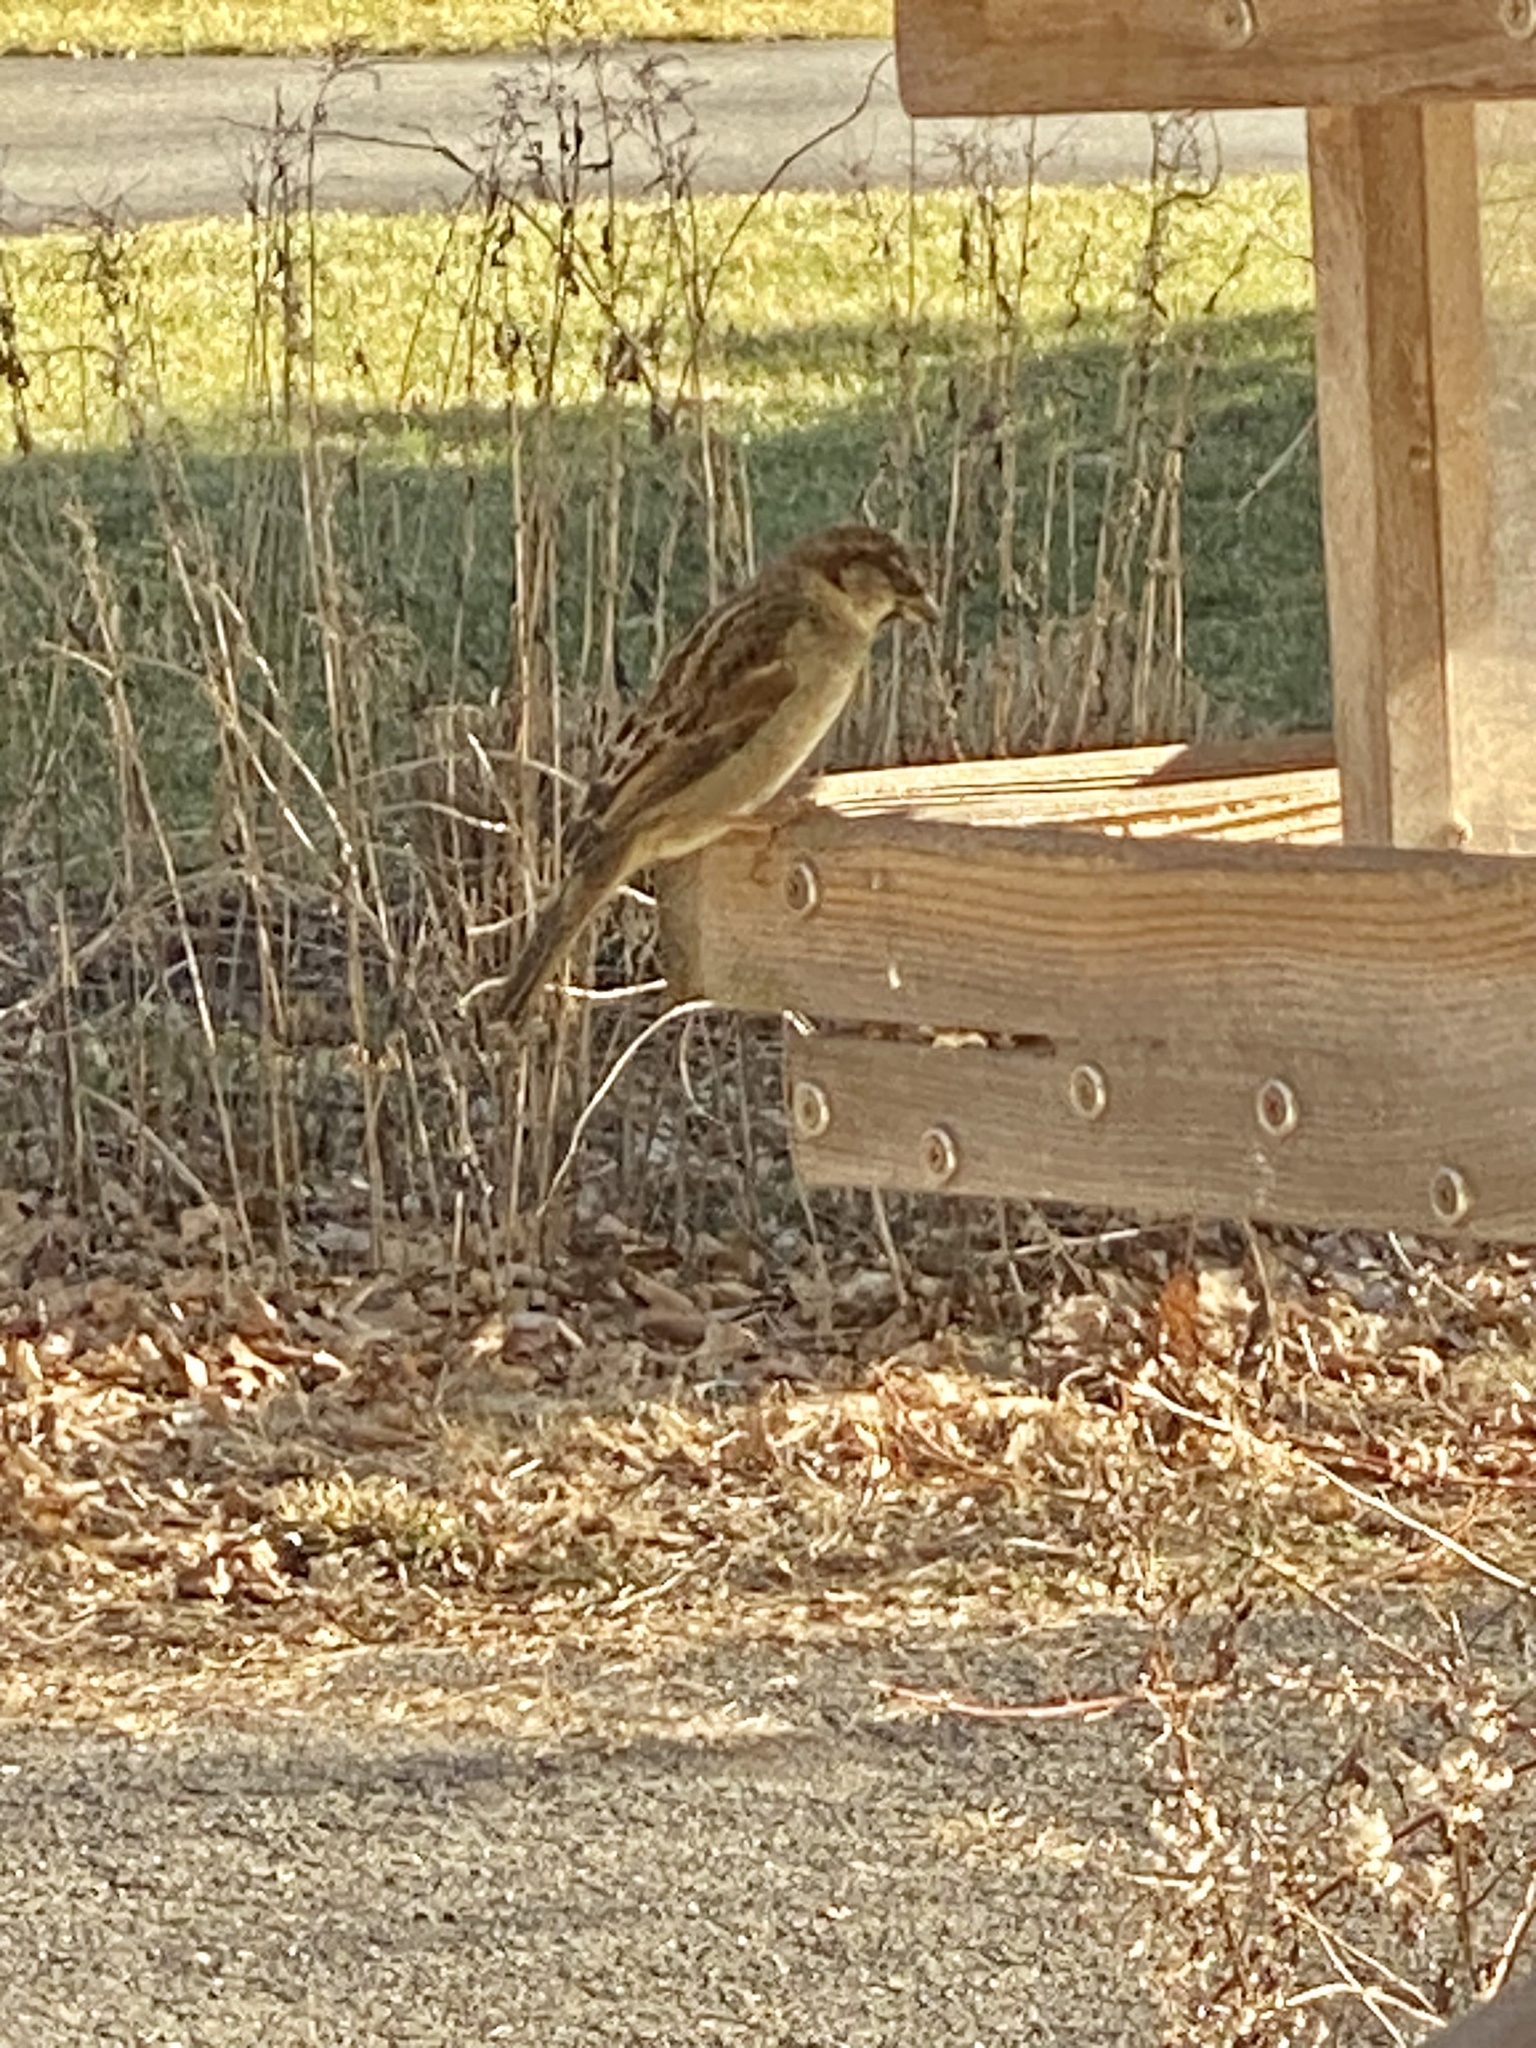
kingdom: Animalia
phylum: Chordata
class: Aves
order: Passeriformes
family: Passeridae
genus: Passer
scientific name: Passer domesticus
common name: House sparrow
